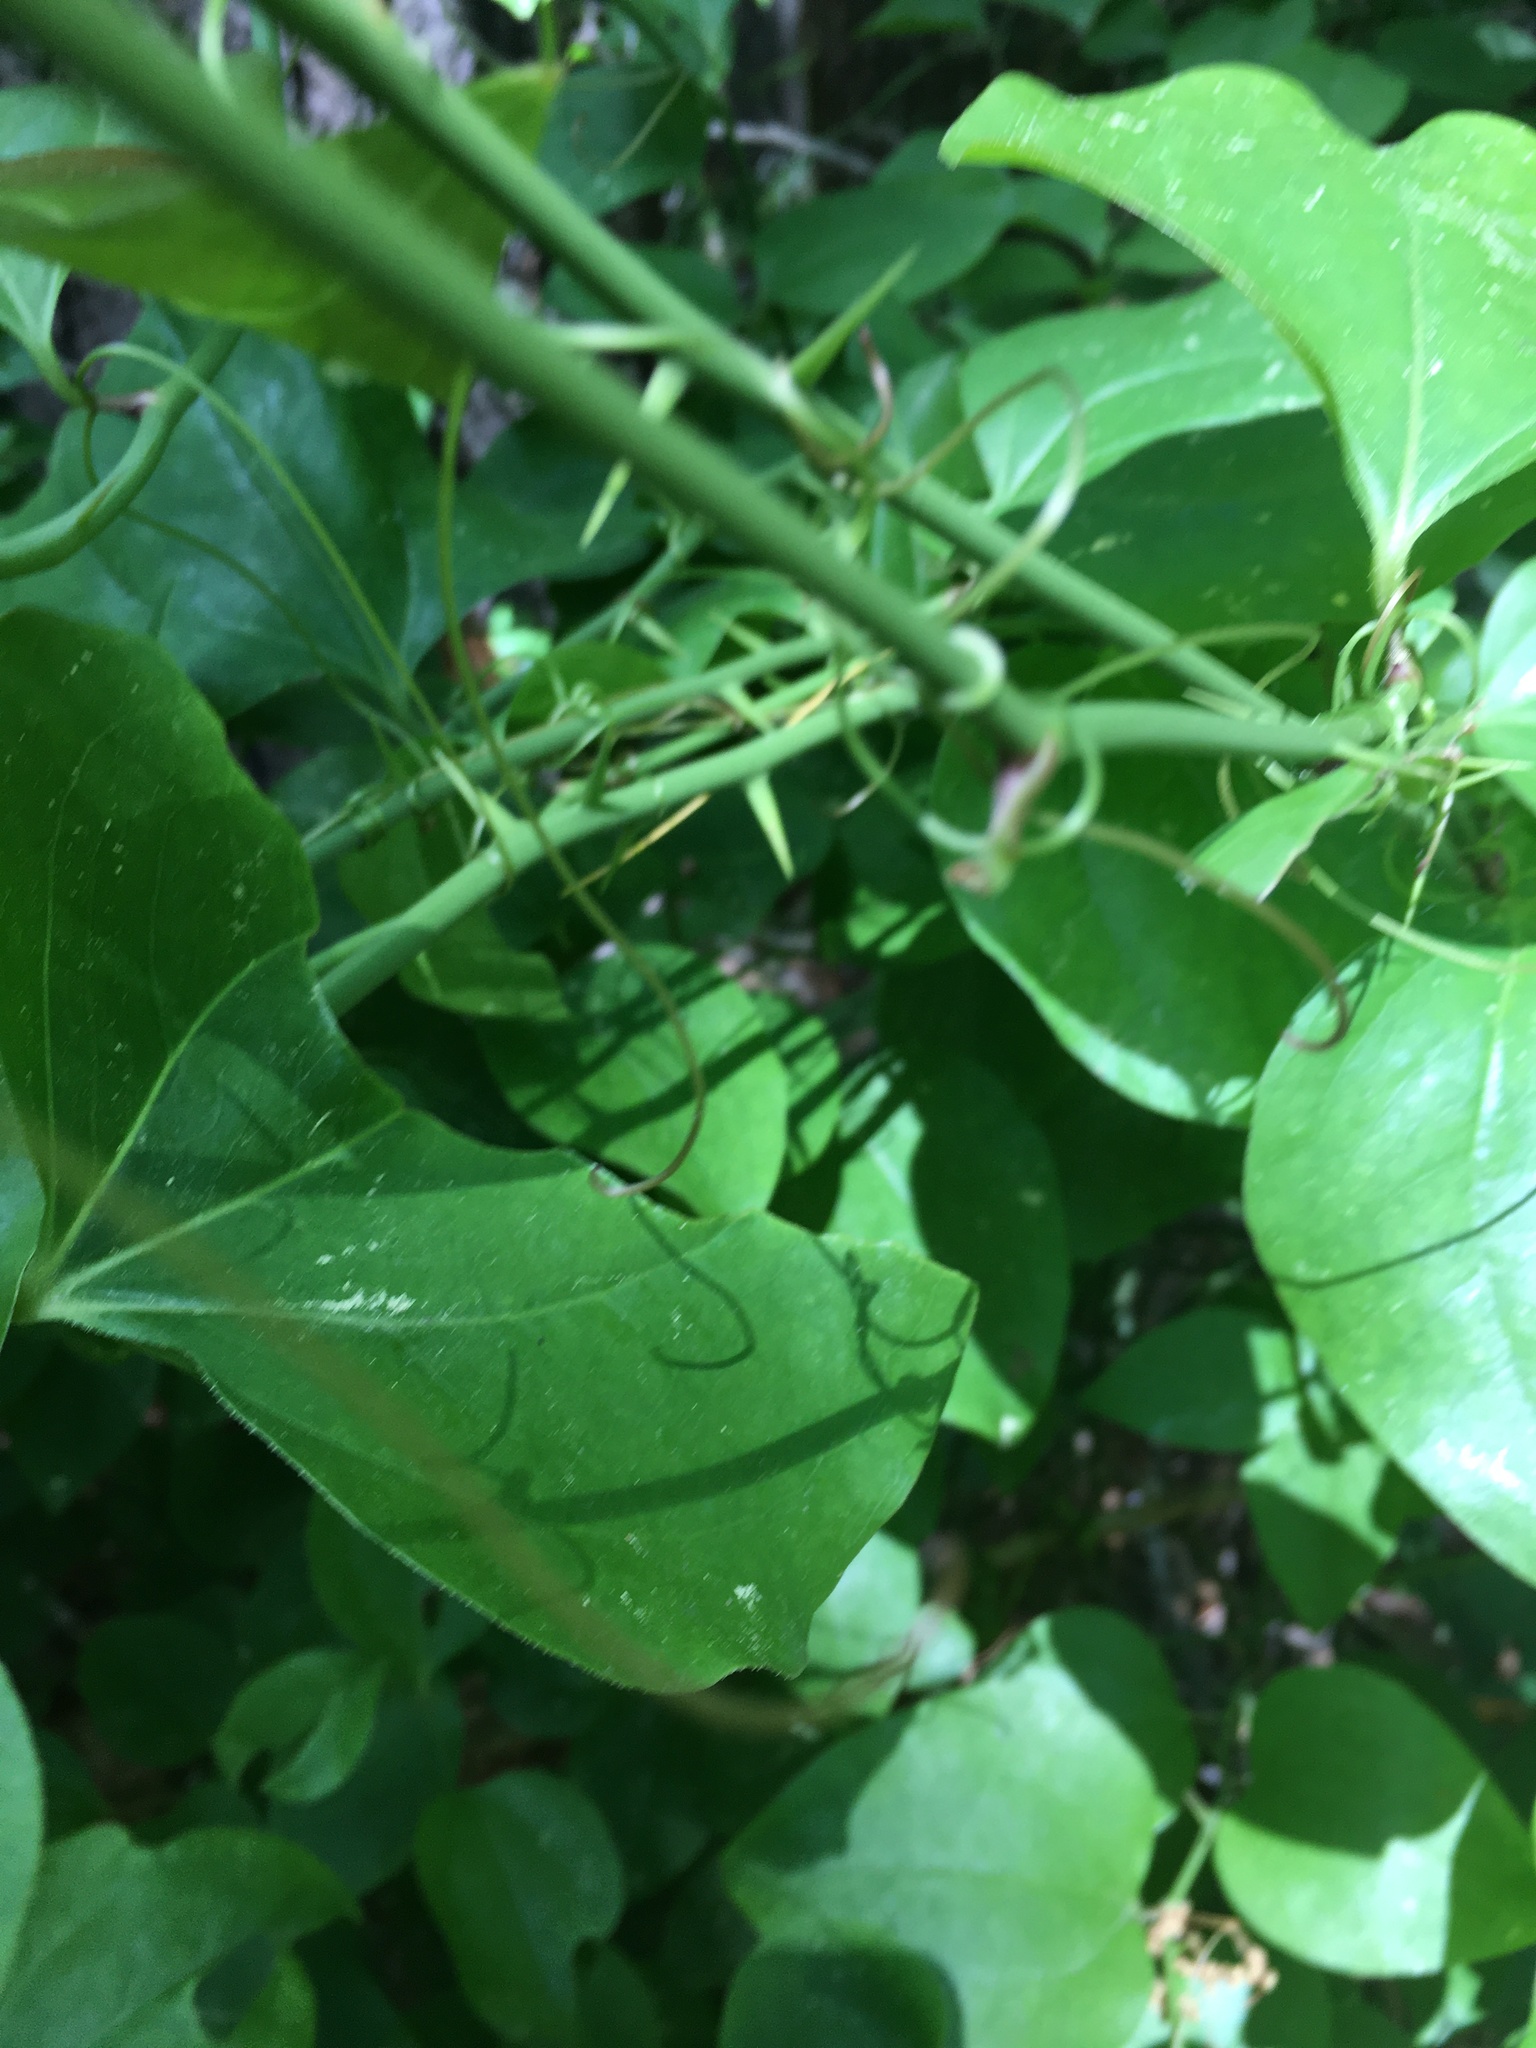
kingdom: Plantae
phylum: Tracheophyta
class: Liliopsida
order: Liliales
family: Smilacaceae
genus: Smilax
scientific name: Smilax rotundifolia
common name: Bullbriar
